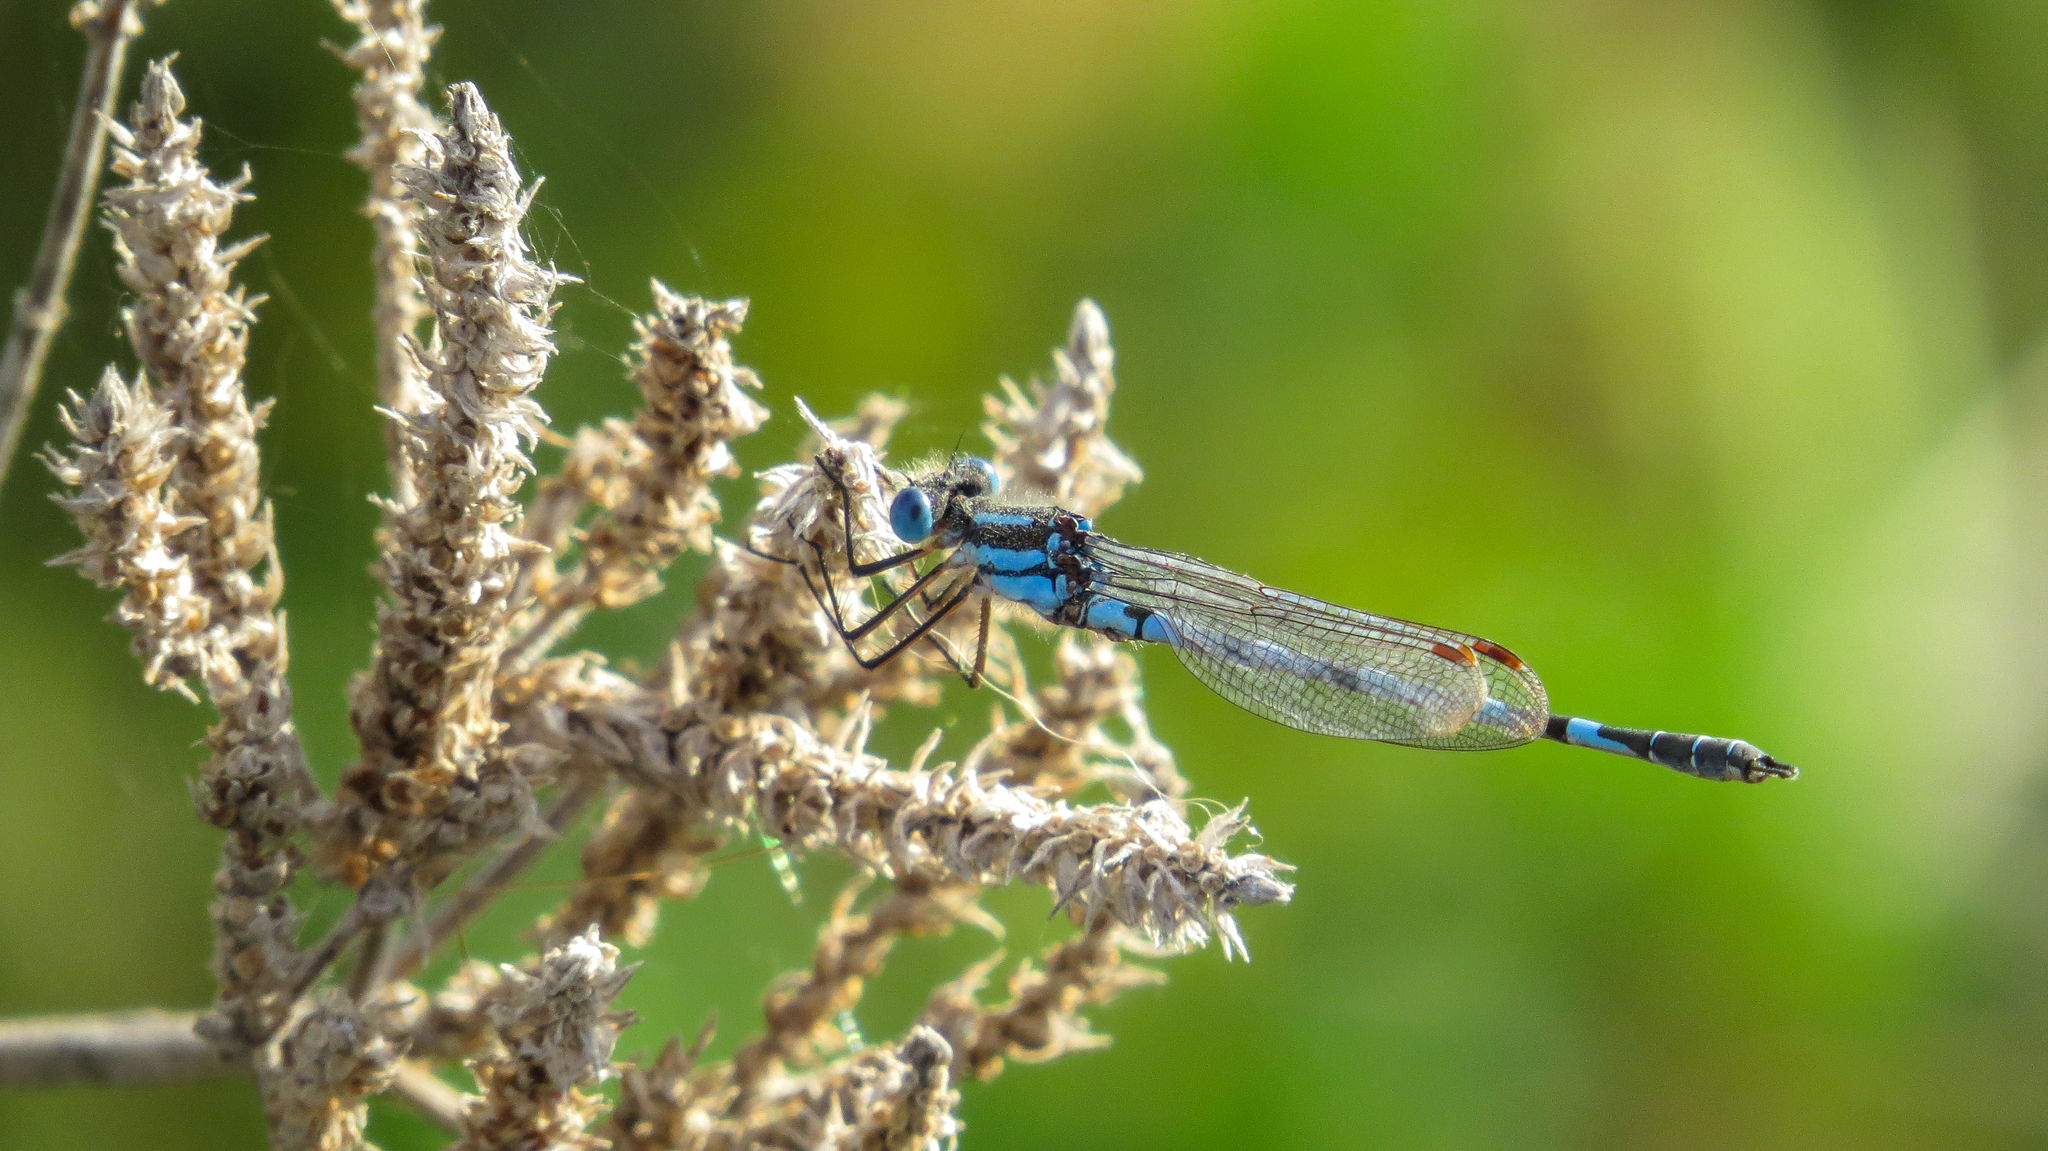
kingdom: Animalia
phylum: Arthropoda
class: Insecta
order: Odonata
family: Lestidae
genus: Austrolestes
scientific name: Austrolestes annulosus
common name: Blue ringtail
